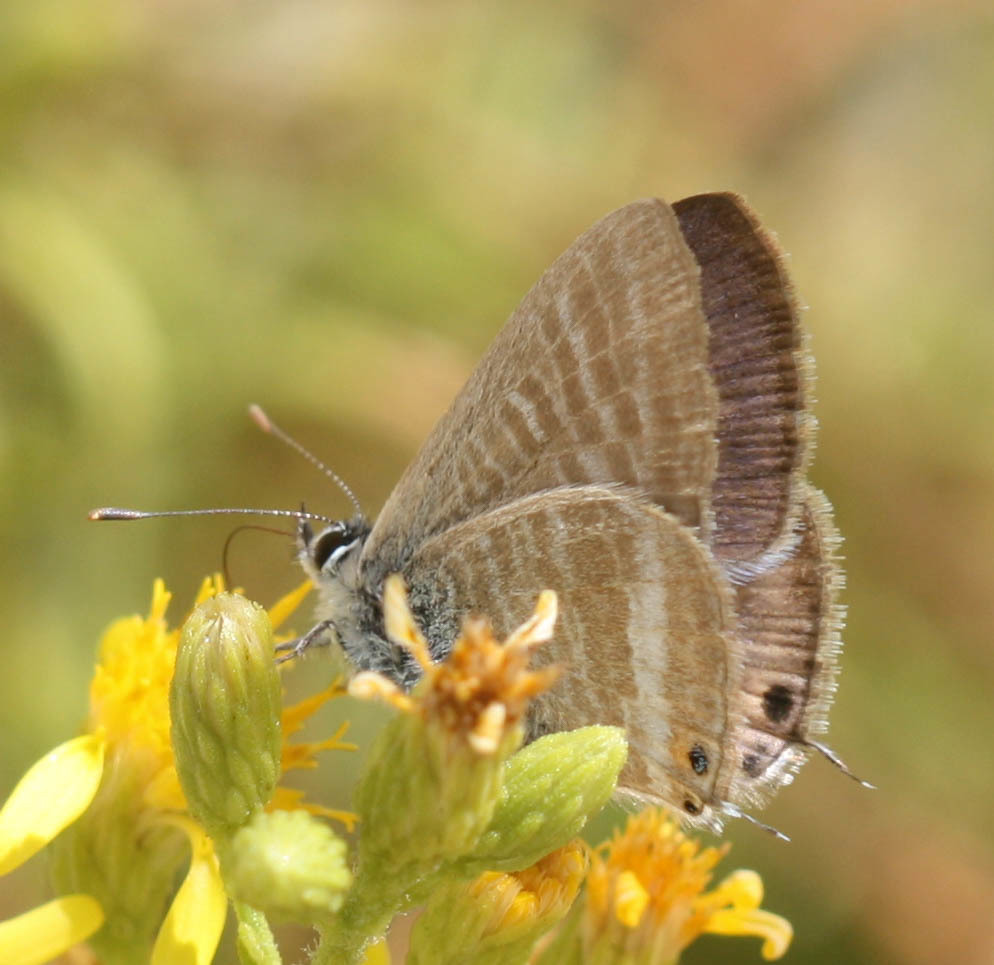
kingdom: Animalia
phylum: Arthropoda
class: Insecta
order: Lepidoptera
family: Lycaenidae
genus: Lampides
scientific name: Lampides boeticus
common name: Long-tailed blue
